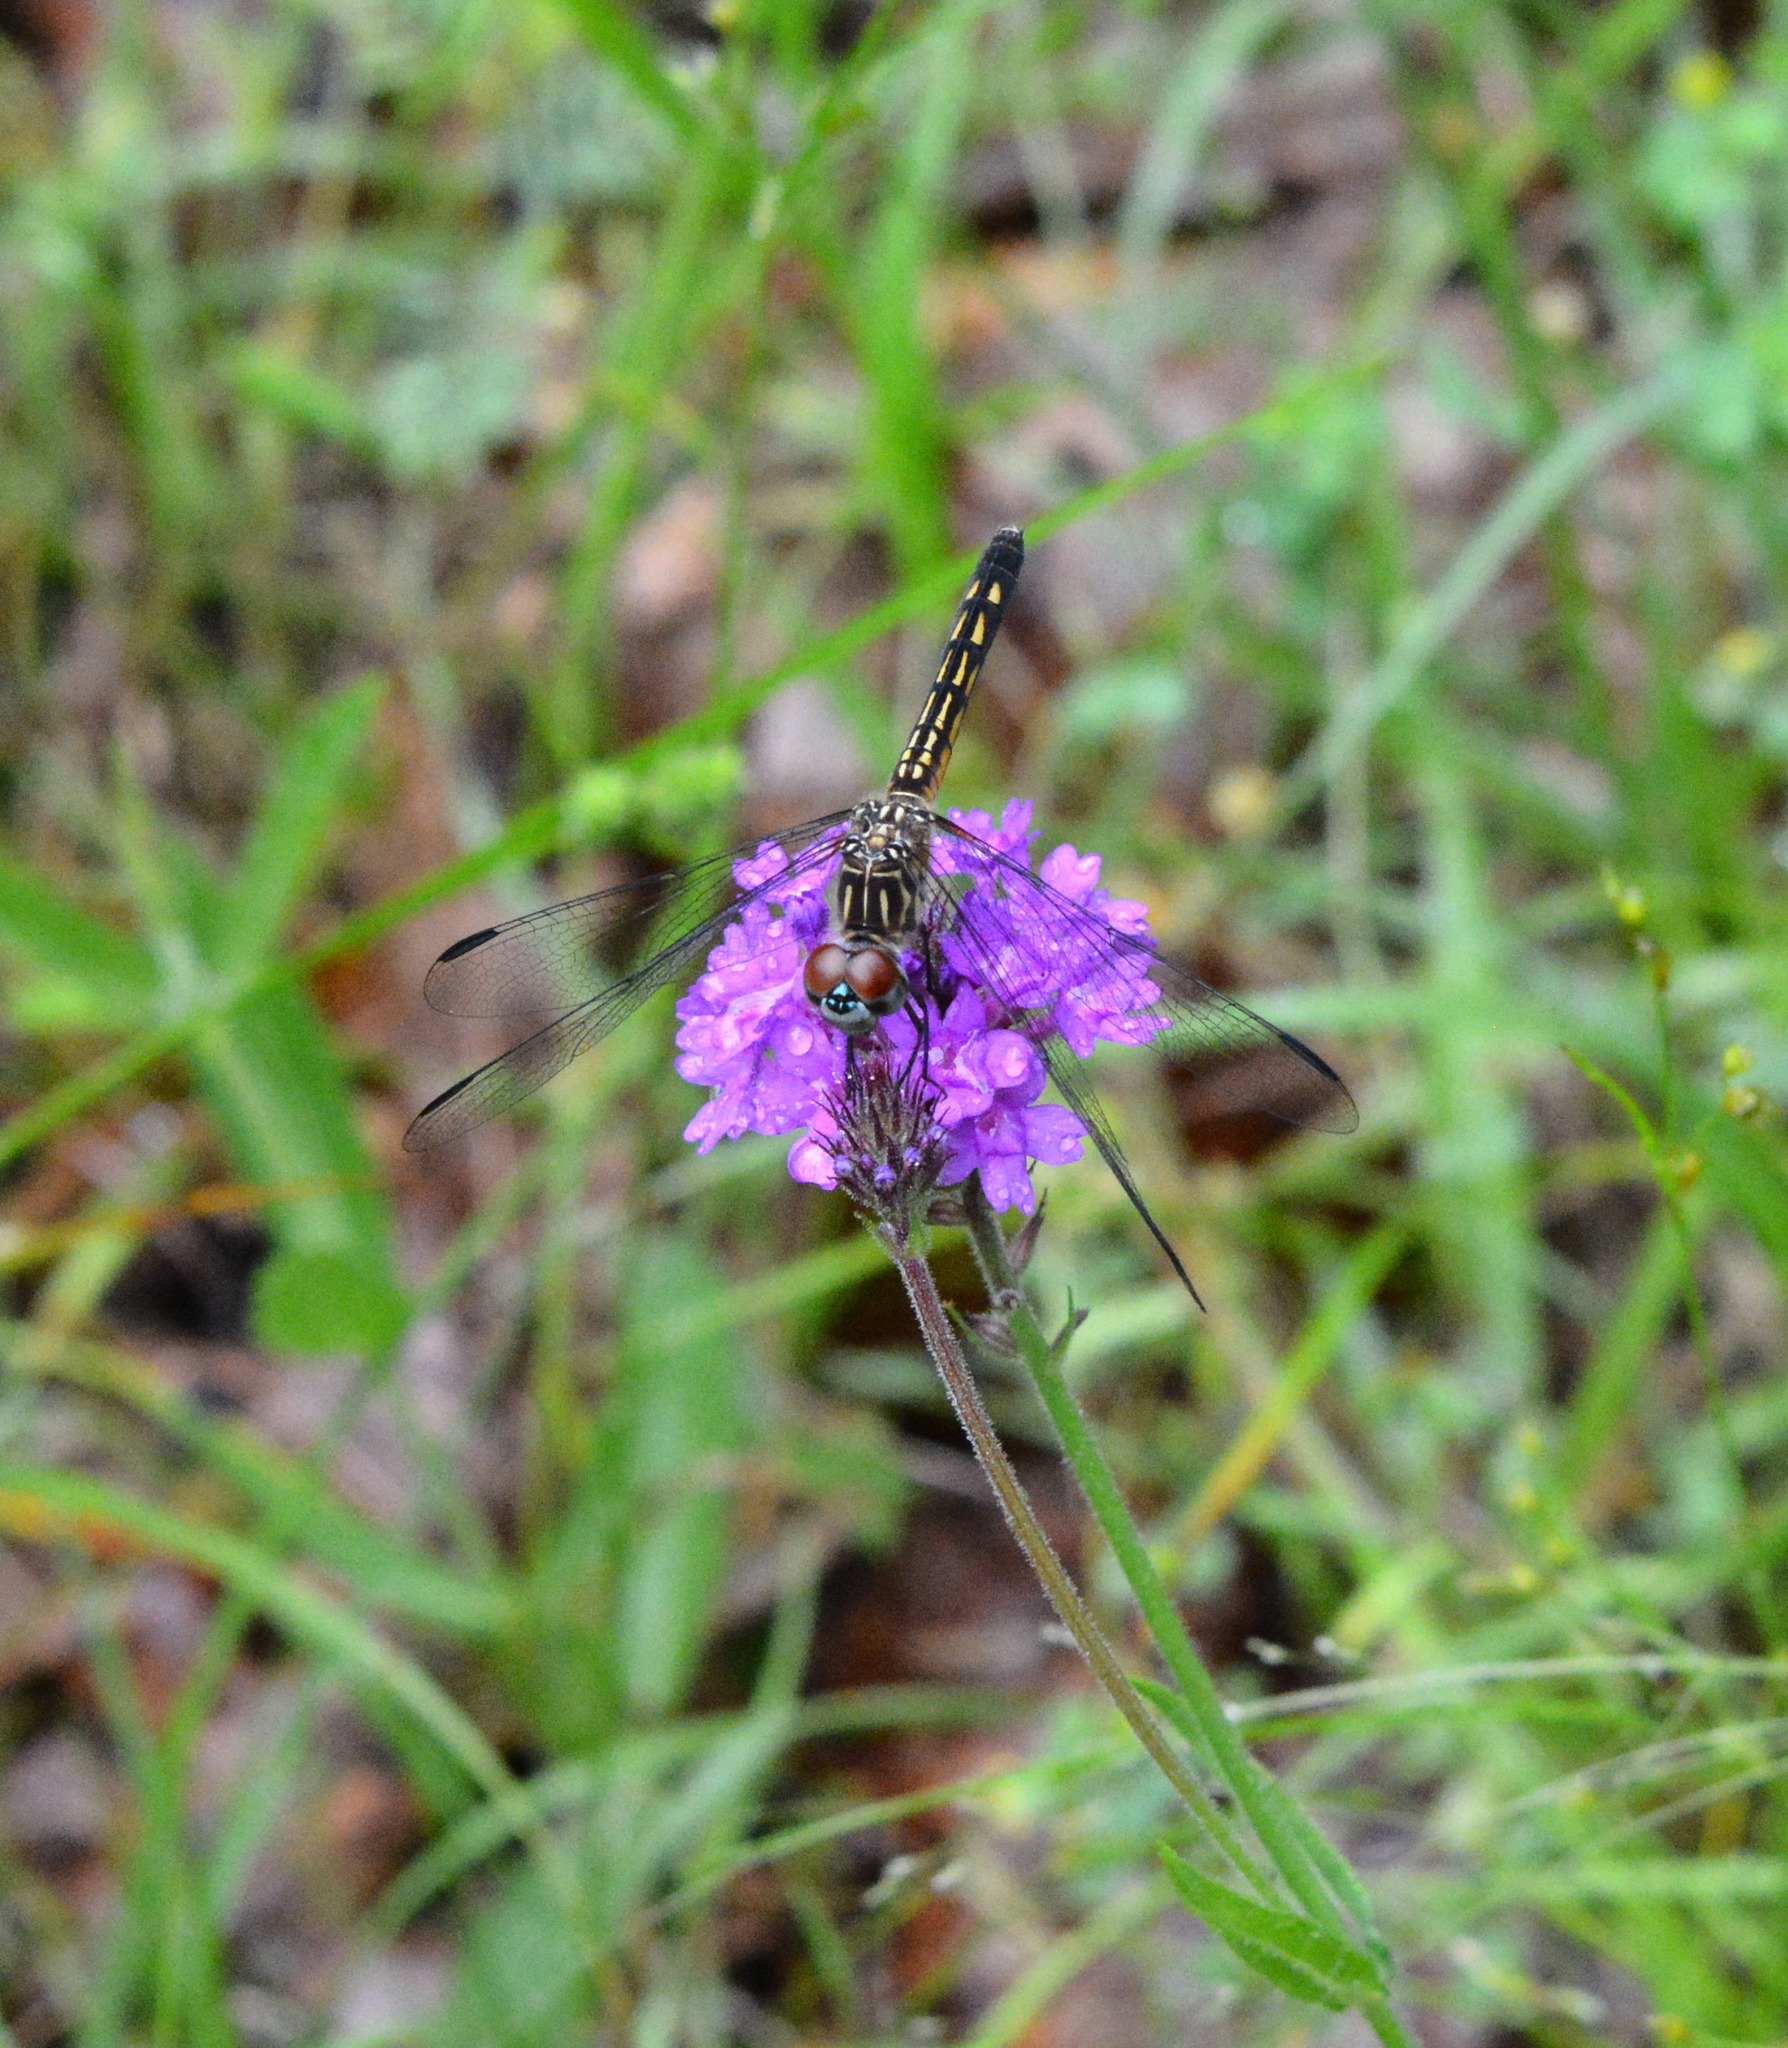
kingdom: Animalia
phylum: Arthropoda
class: Insecta
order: Odonata
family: Libellulidae
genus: Pachydiplax
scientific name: Pachydiplax longipennis
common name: Blue dasher
